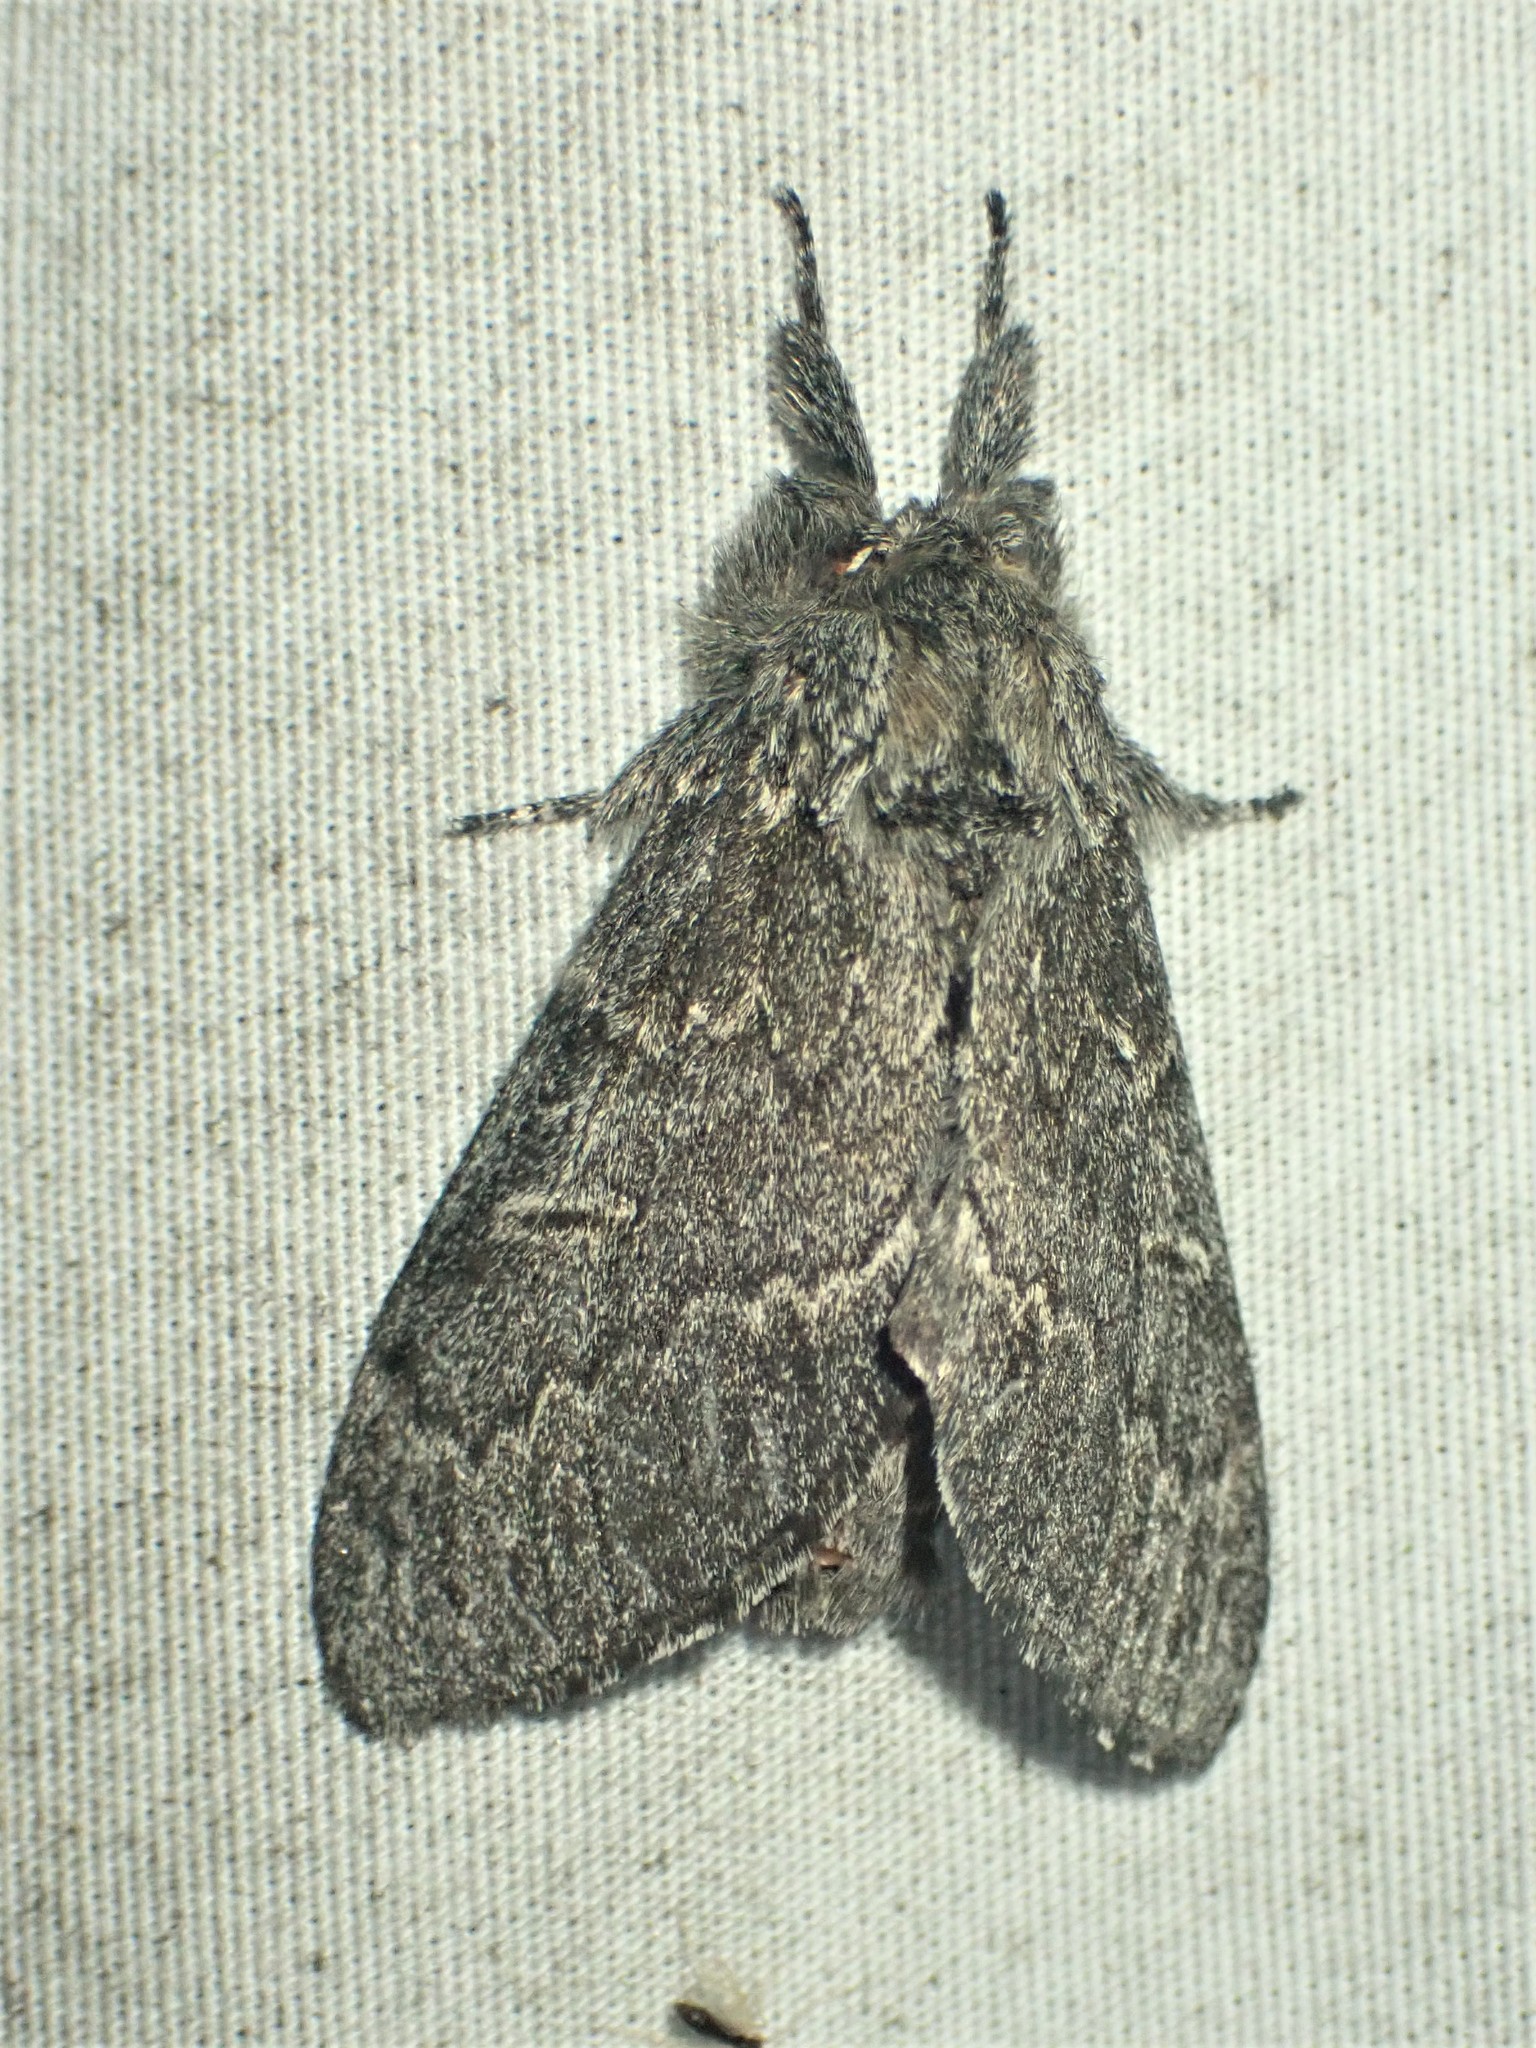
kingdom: Animalia
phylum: Arthropoda
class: Insecta
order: Lepidoptera
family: Notodontidae
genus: Notodonta
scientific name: Notodonta torva
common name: Large dark prominent
